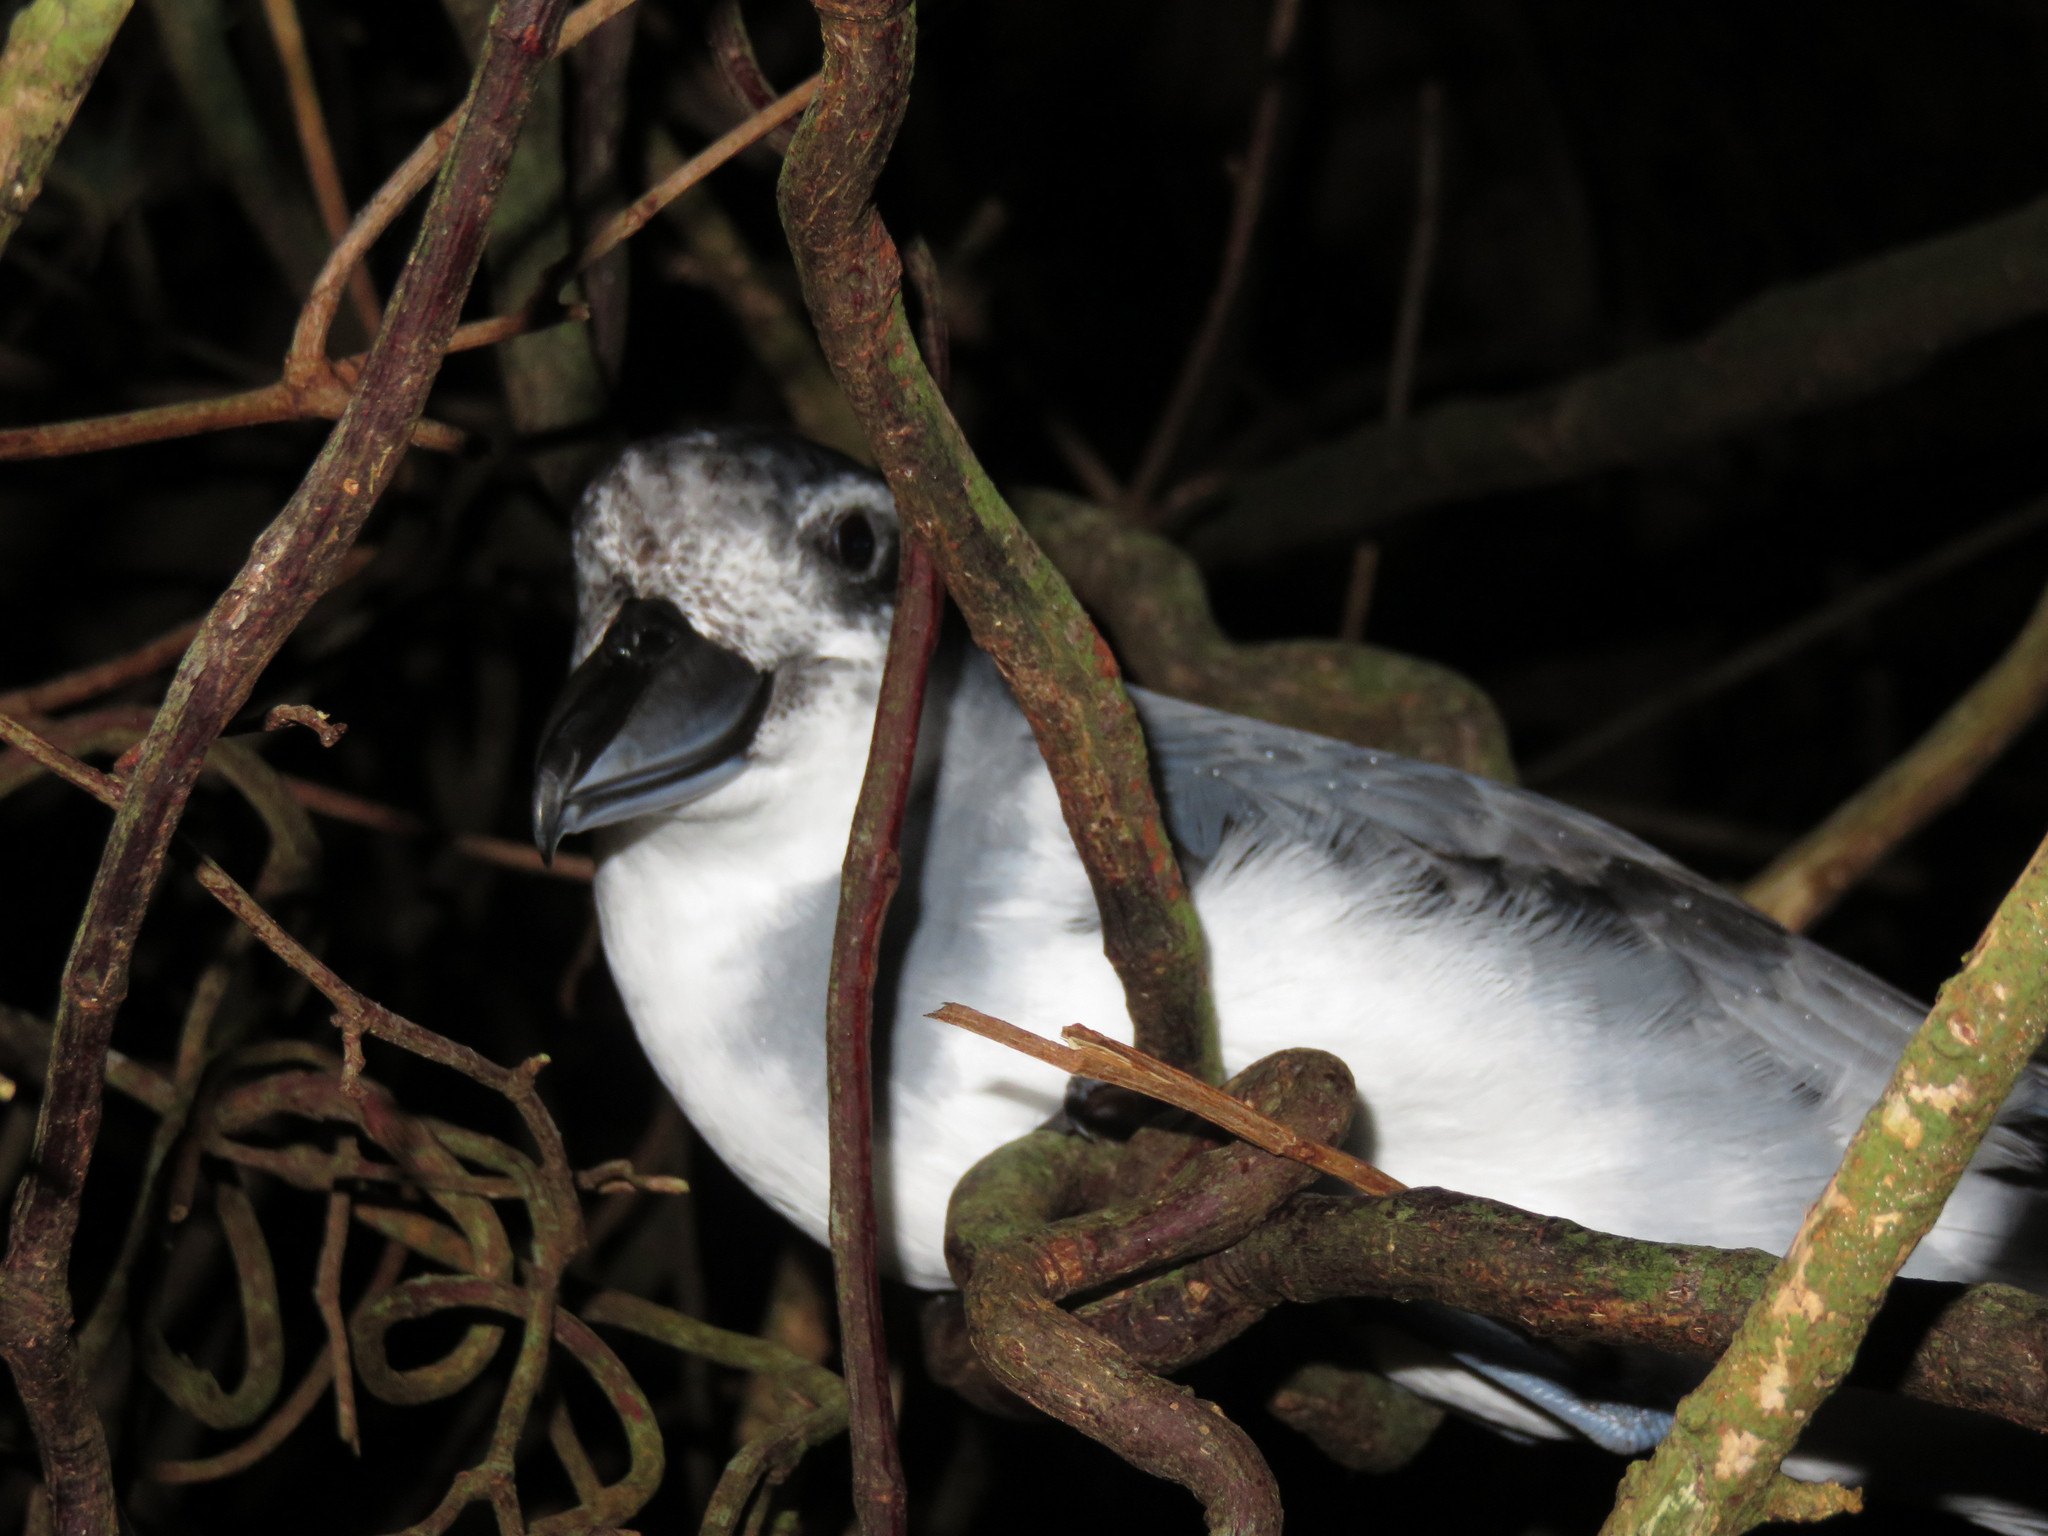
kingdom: Animalia
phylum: Chordata
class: Aves
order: Procellariiformes
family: Procellariidae
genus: Pachyptila
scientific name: Pachyptila vittata
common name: Broad-billed prion
